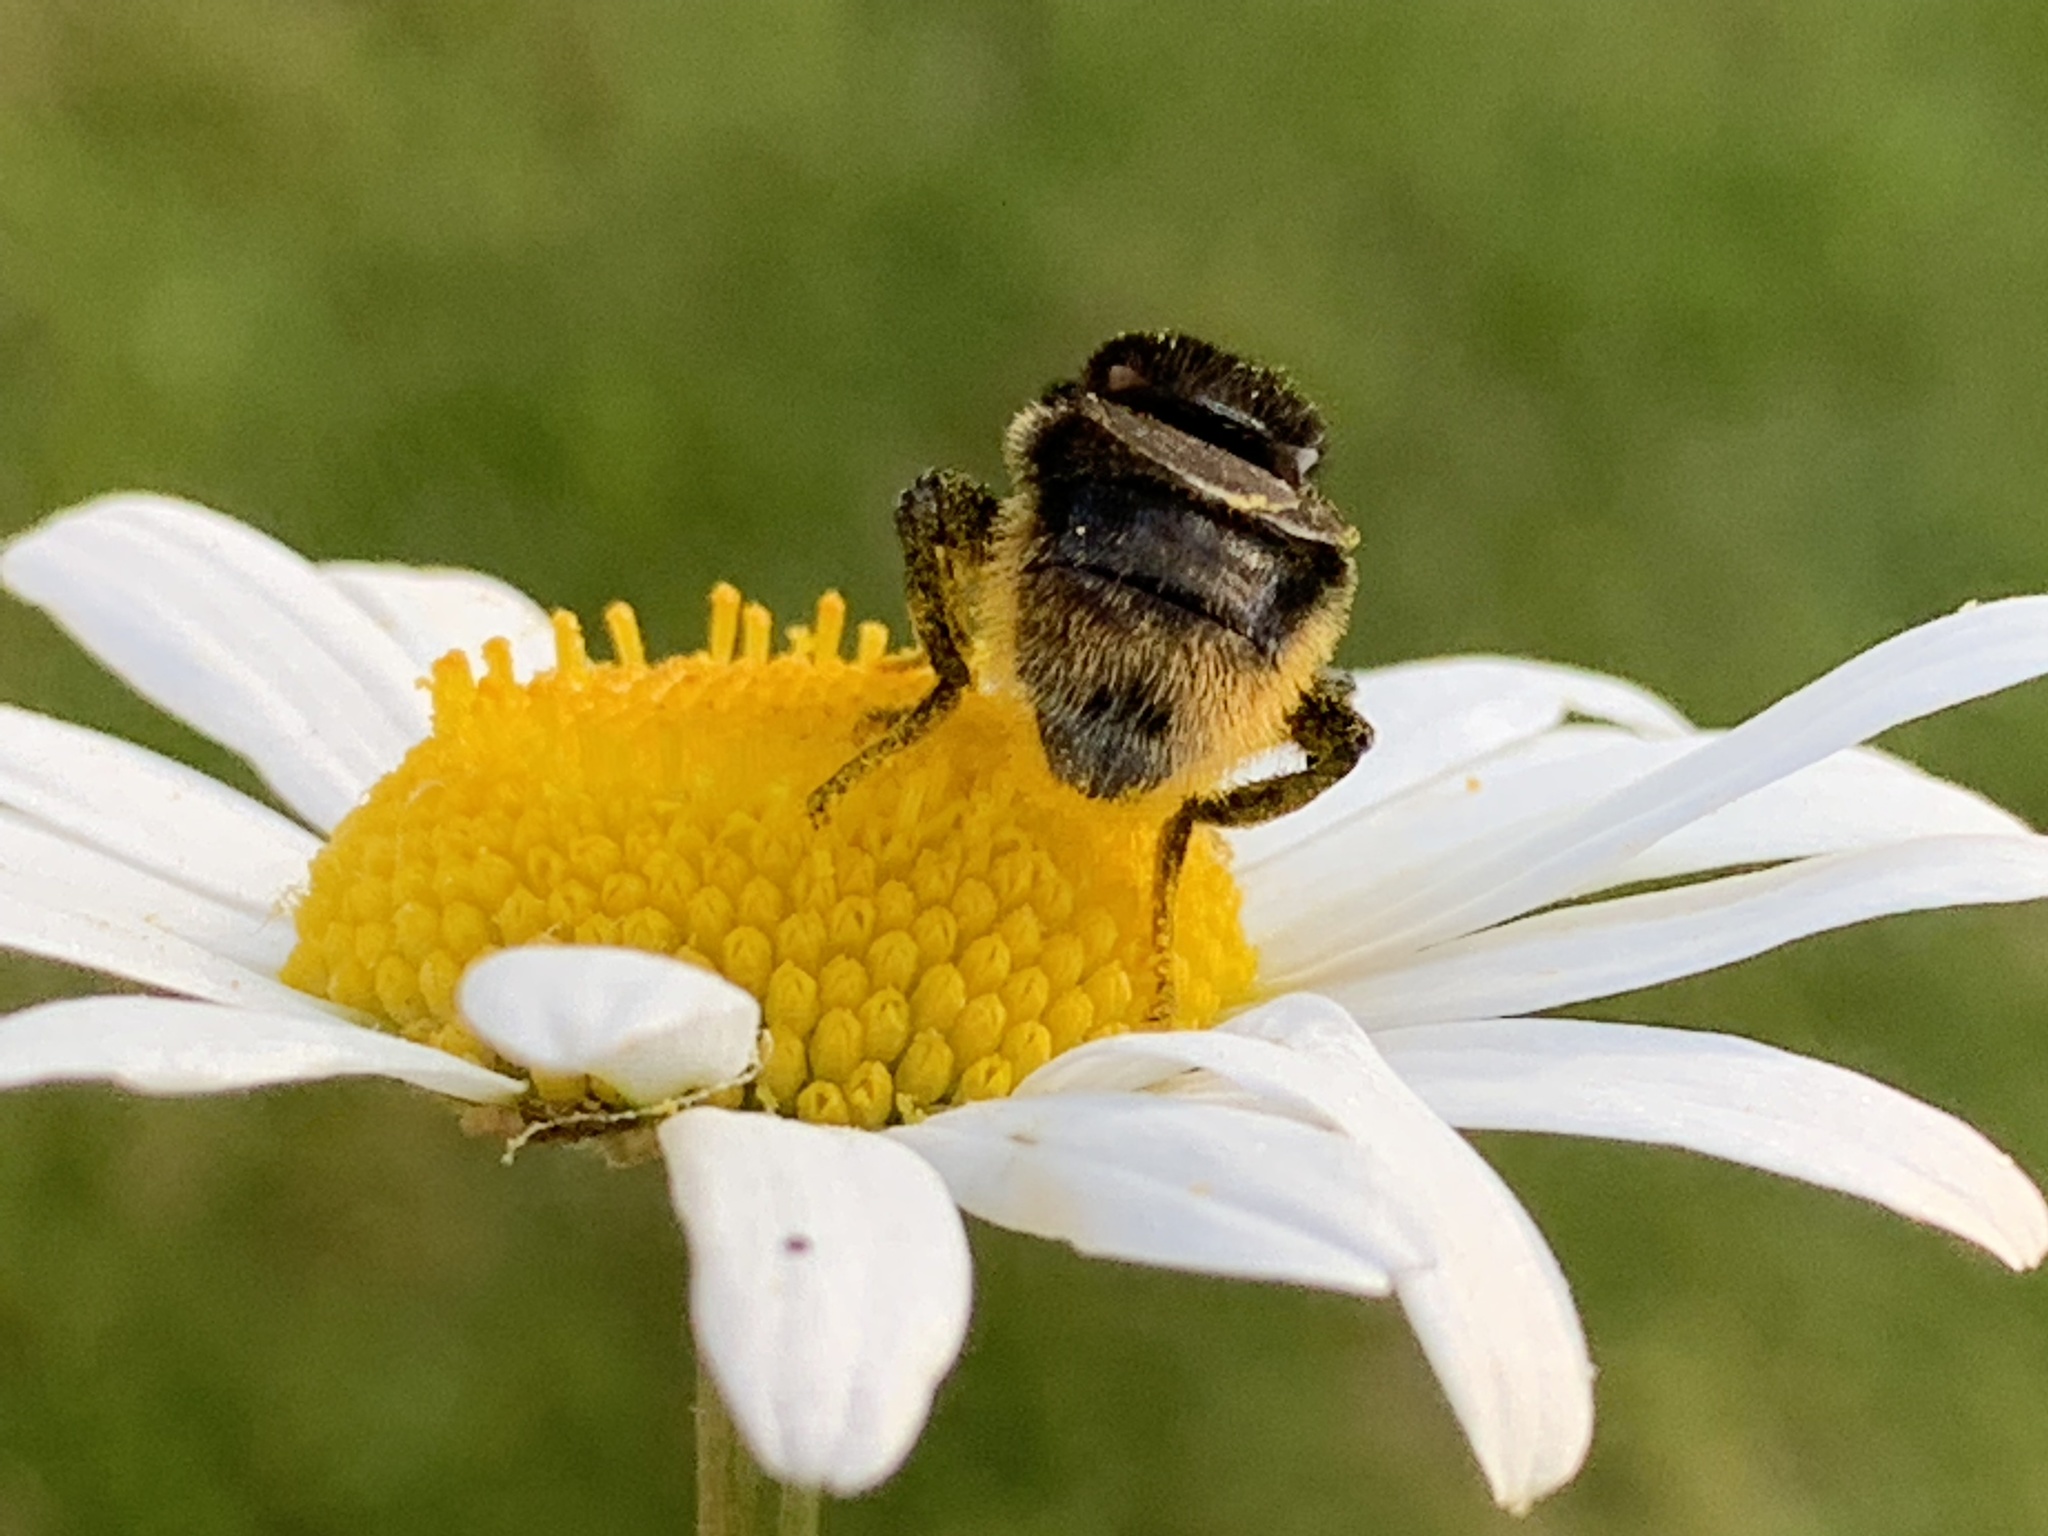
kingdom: Animalia
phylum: Arthropoda
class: Insecta
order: Diptera
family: Syrphidae
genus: Merodon
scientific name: Merodon equestris
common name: Greater bulb-fly
